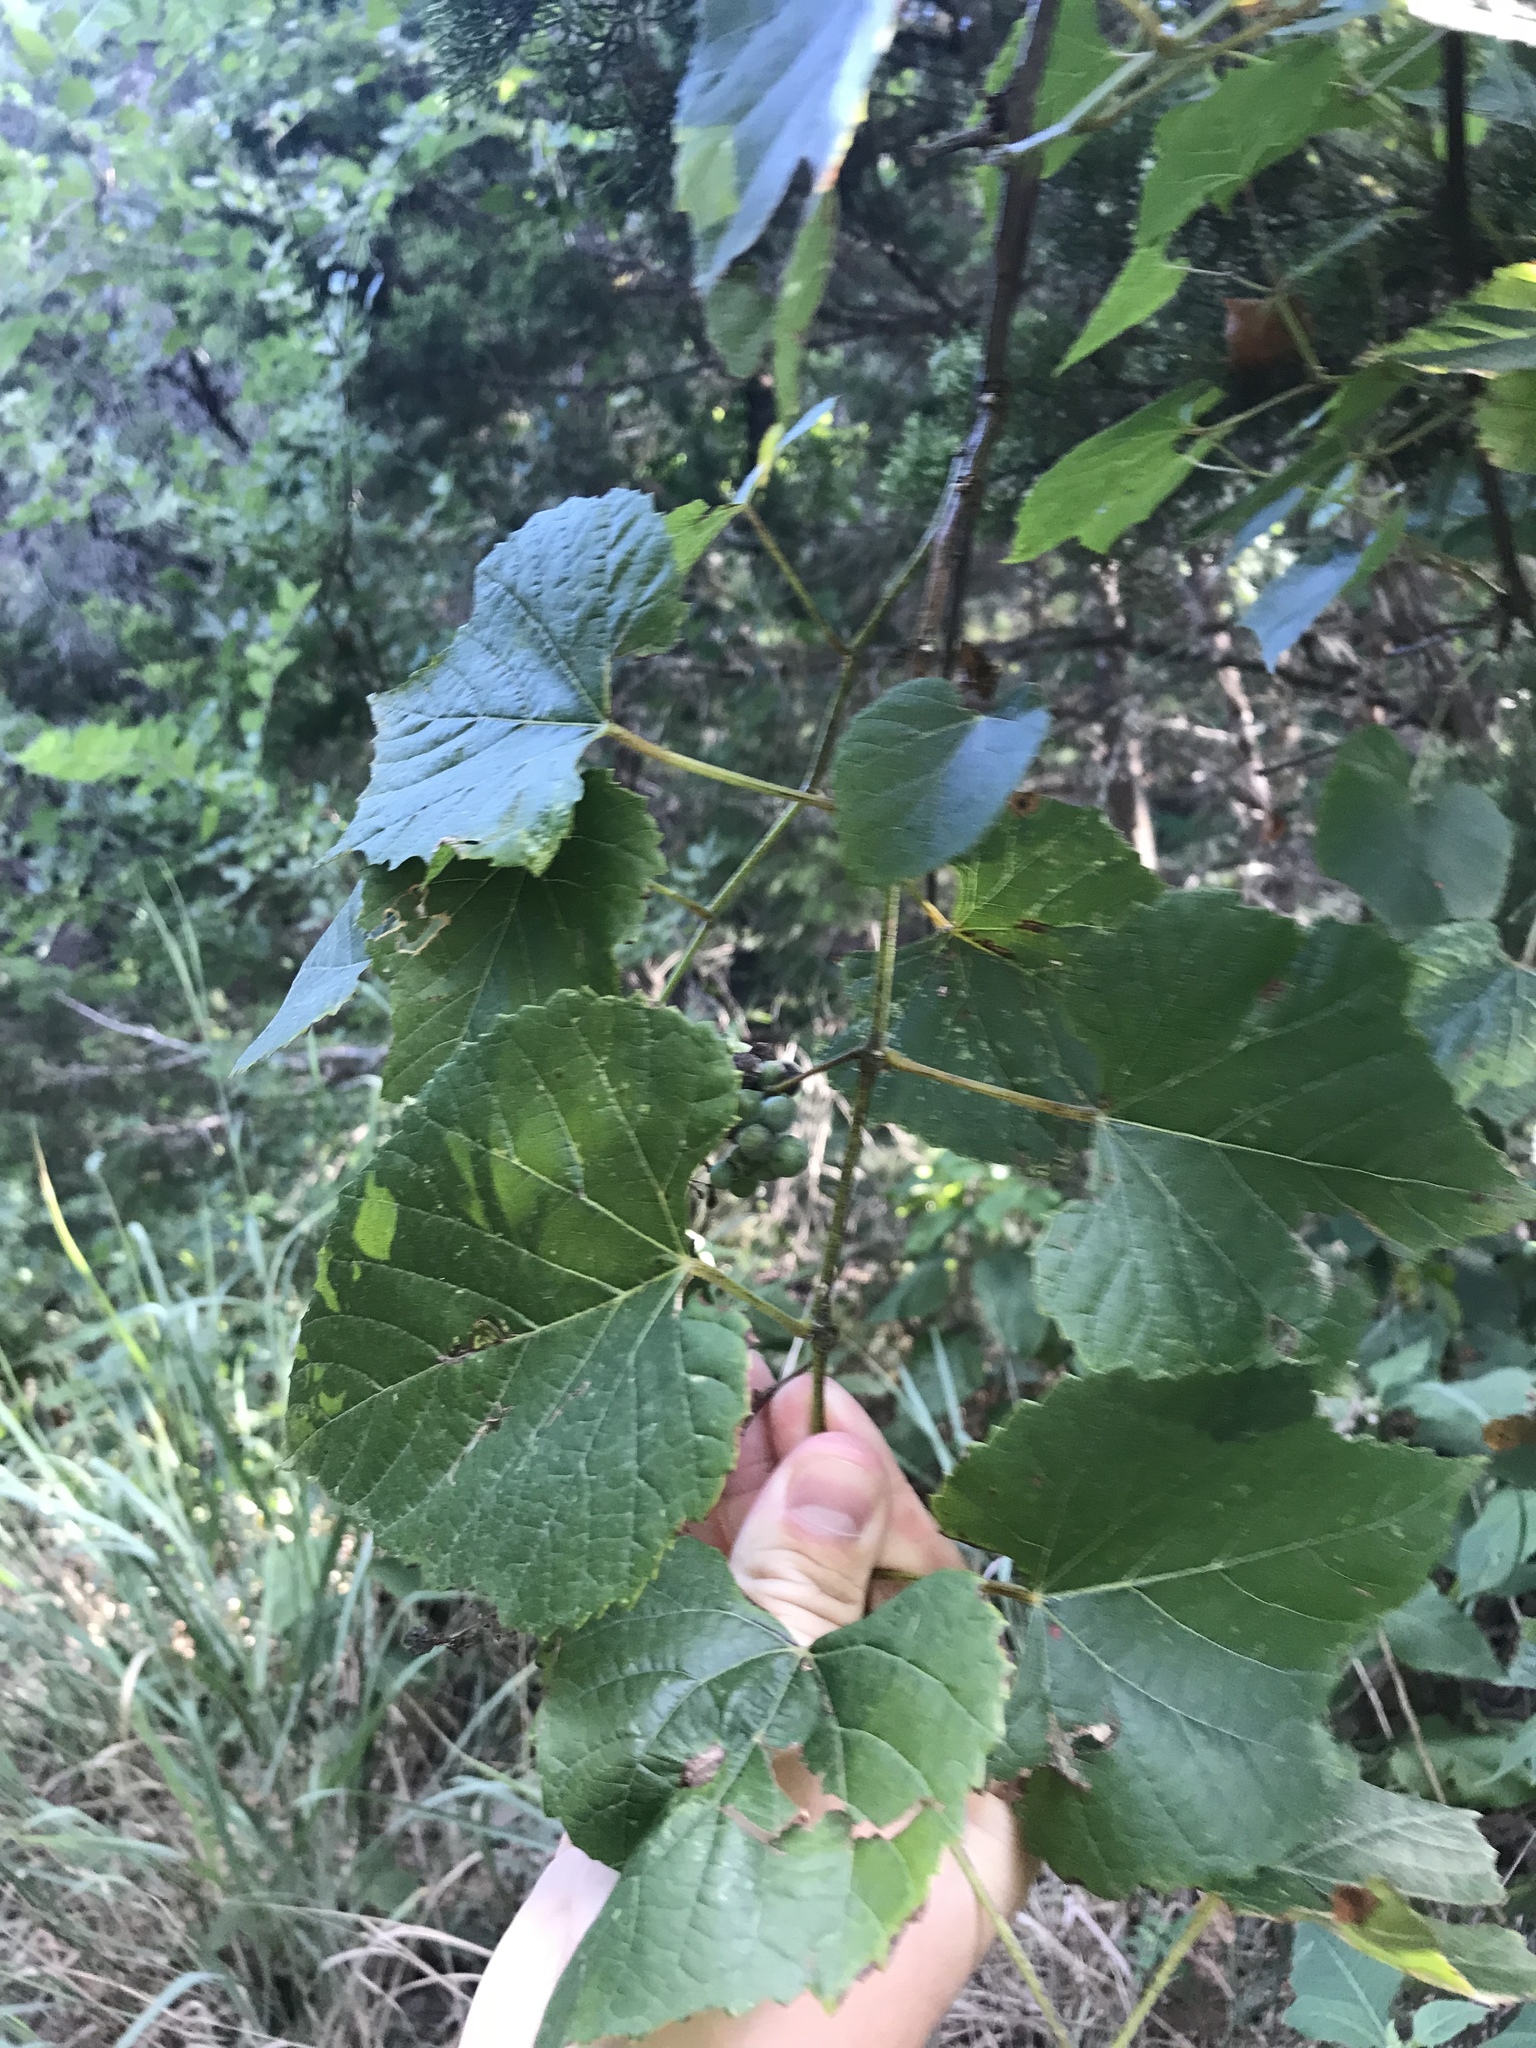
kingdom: Plantae
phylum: Tracheophyta
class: Magnoliopsida
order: Vitales
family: Vitaceae
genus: Vitis
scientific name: Vitis cinerea
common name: Ashy grape
